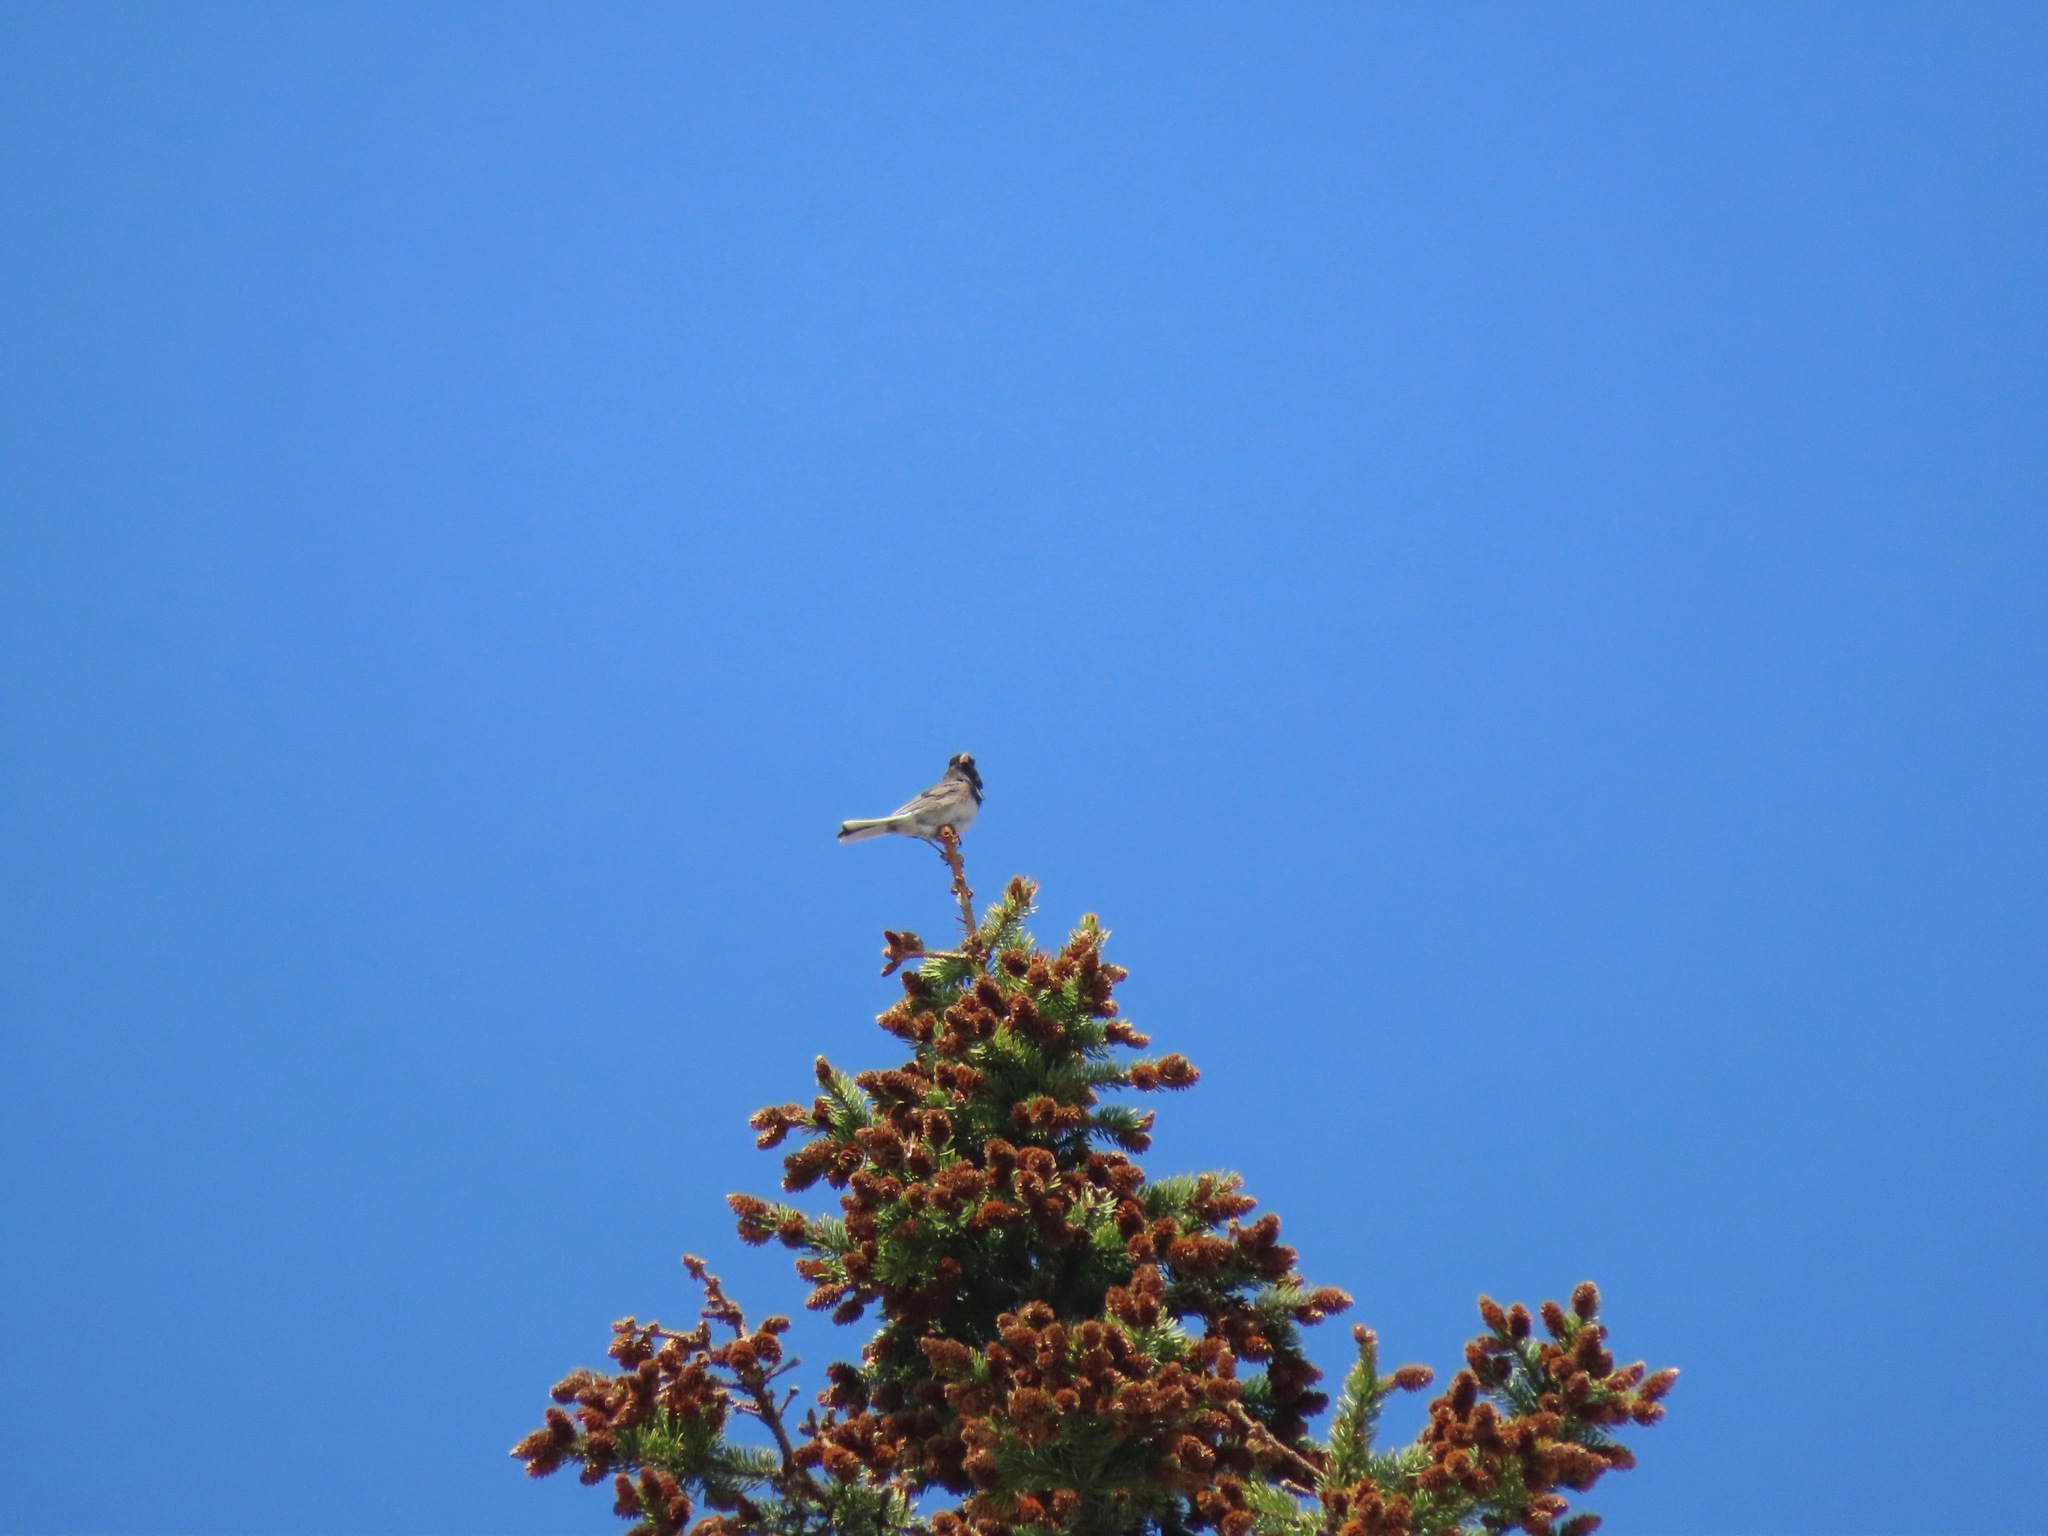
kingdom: Animalia
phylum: Chordata
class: Aves
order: Passeriformes
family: Passerellidae
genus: Junco
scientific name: Junco hyemalis
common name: Dark-eyed junco
